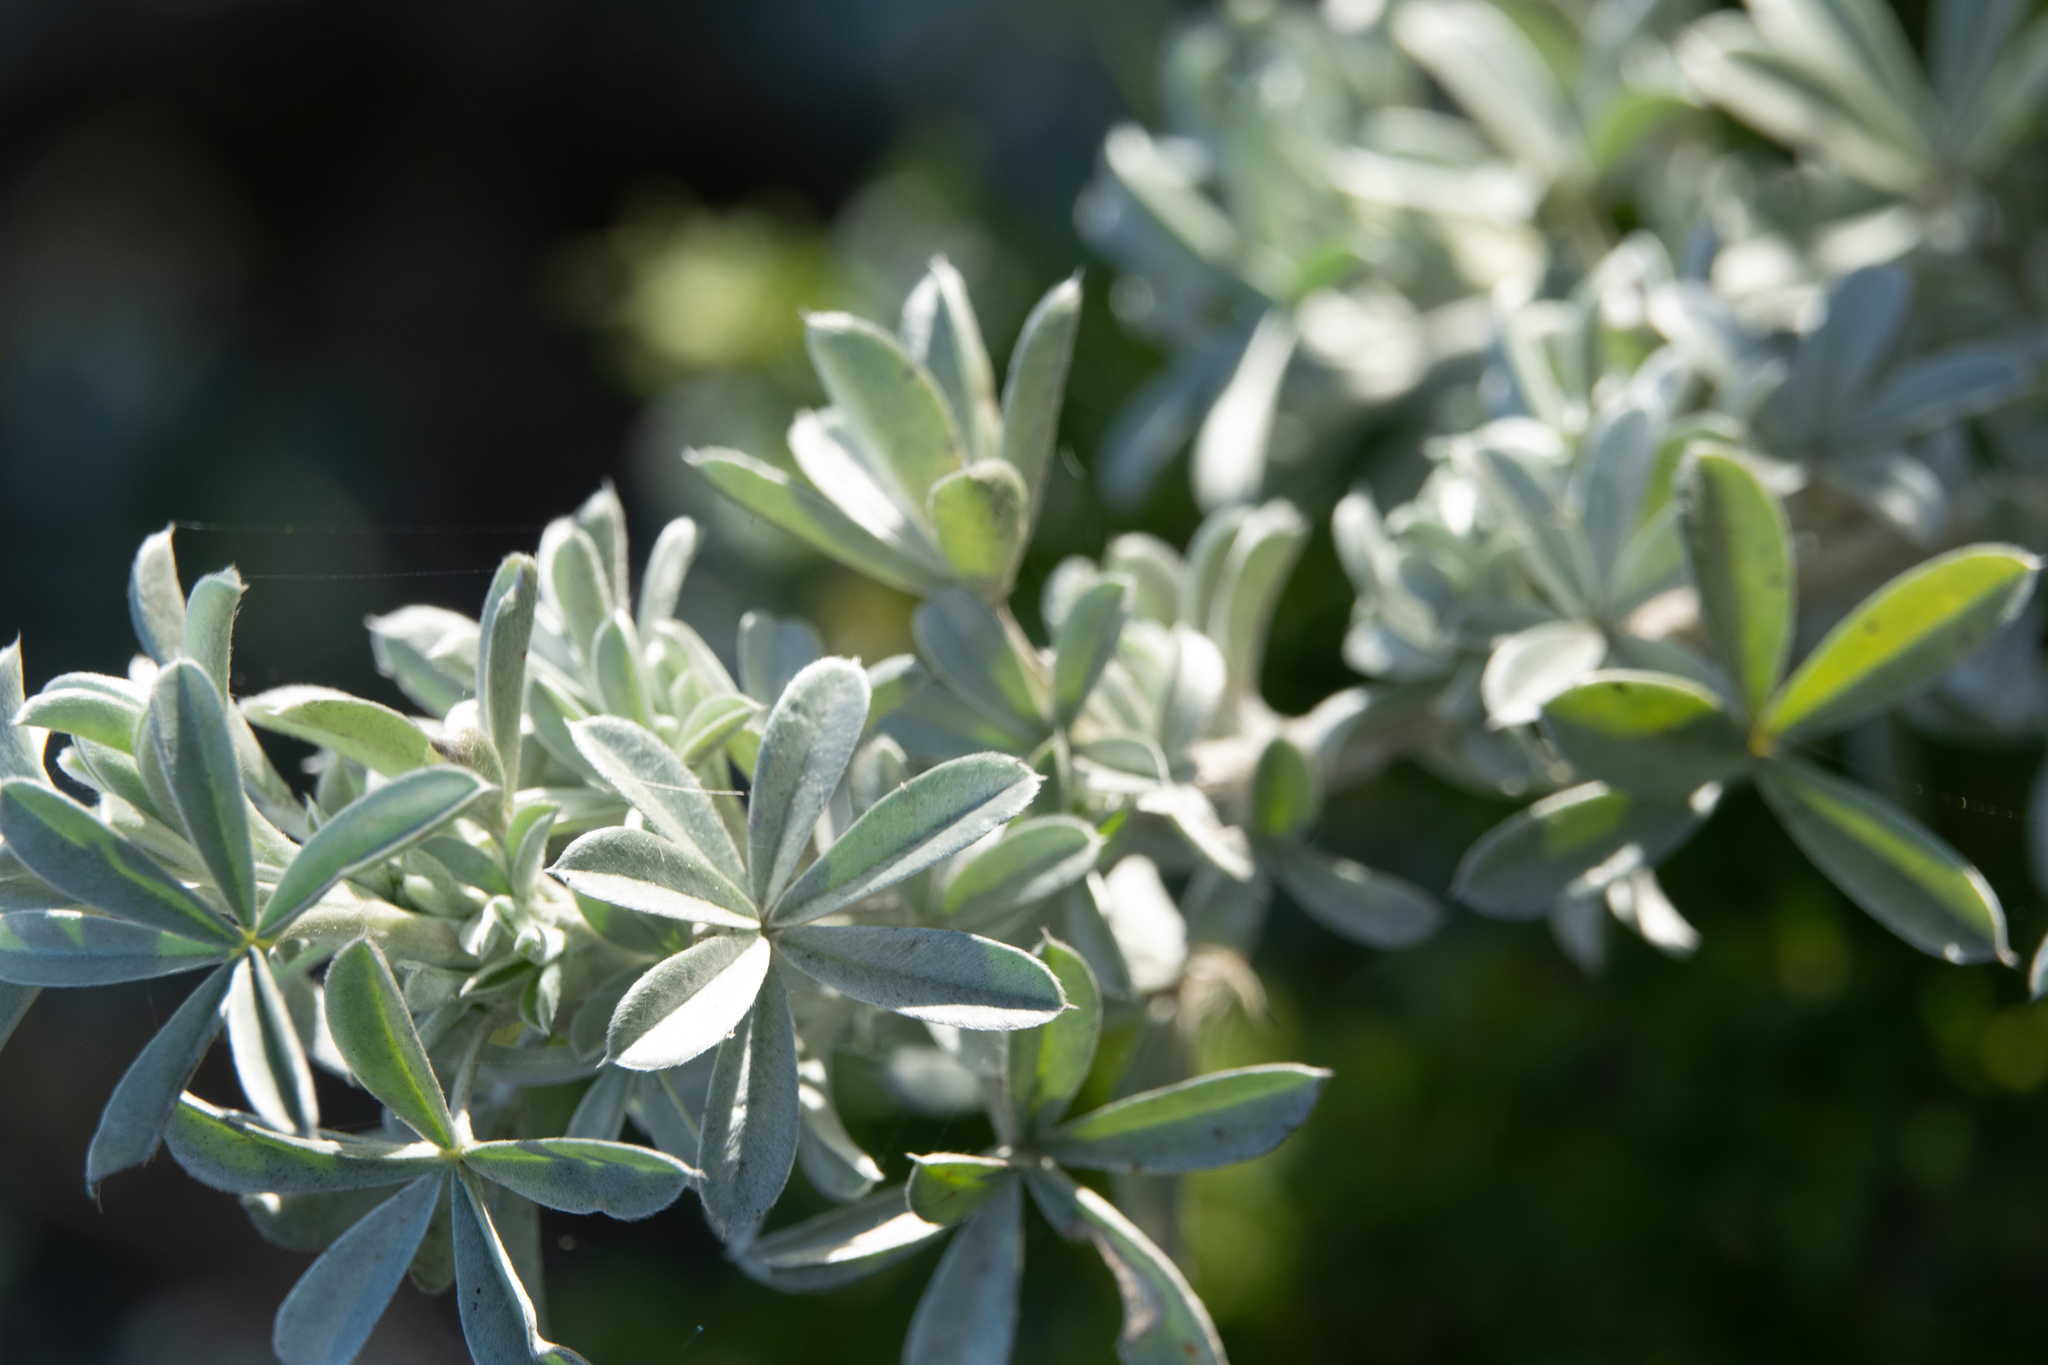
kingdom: Plantae
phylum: Tracheophyta
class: Magnoliopsida
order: Fabales
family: Fabaceae
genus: Lupinus
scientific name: Lupinus chamissonis
